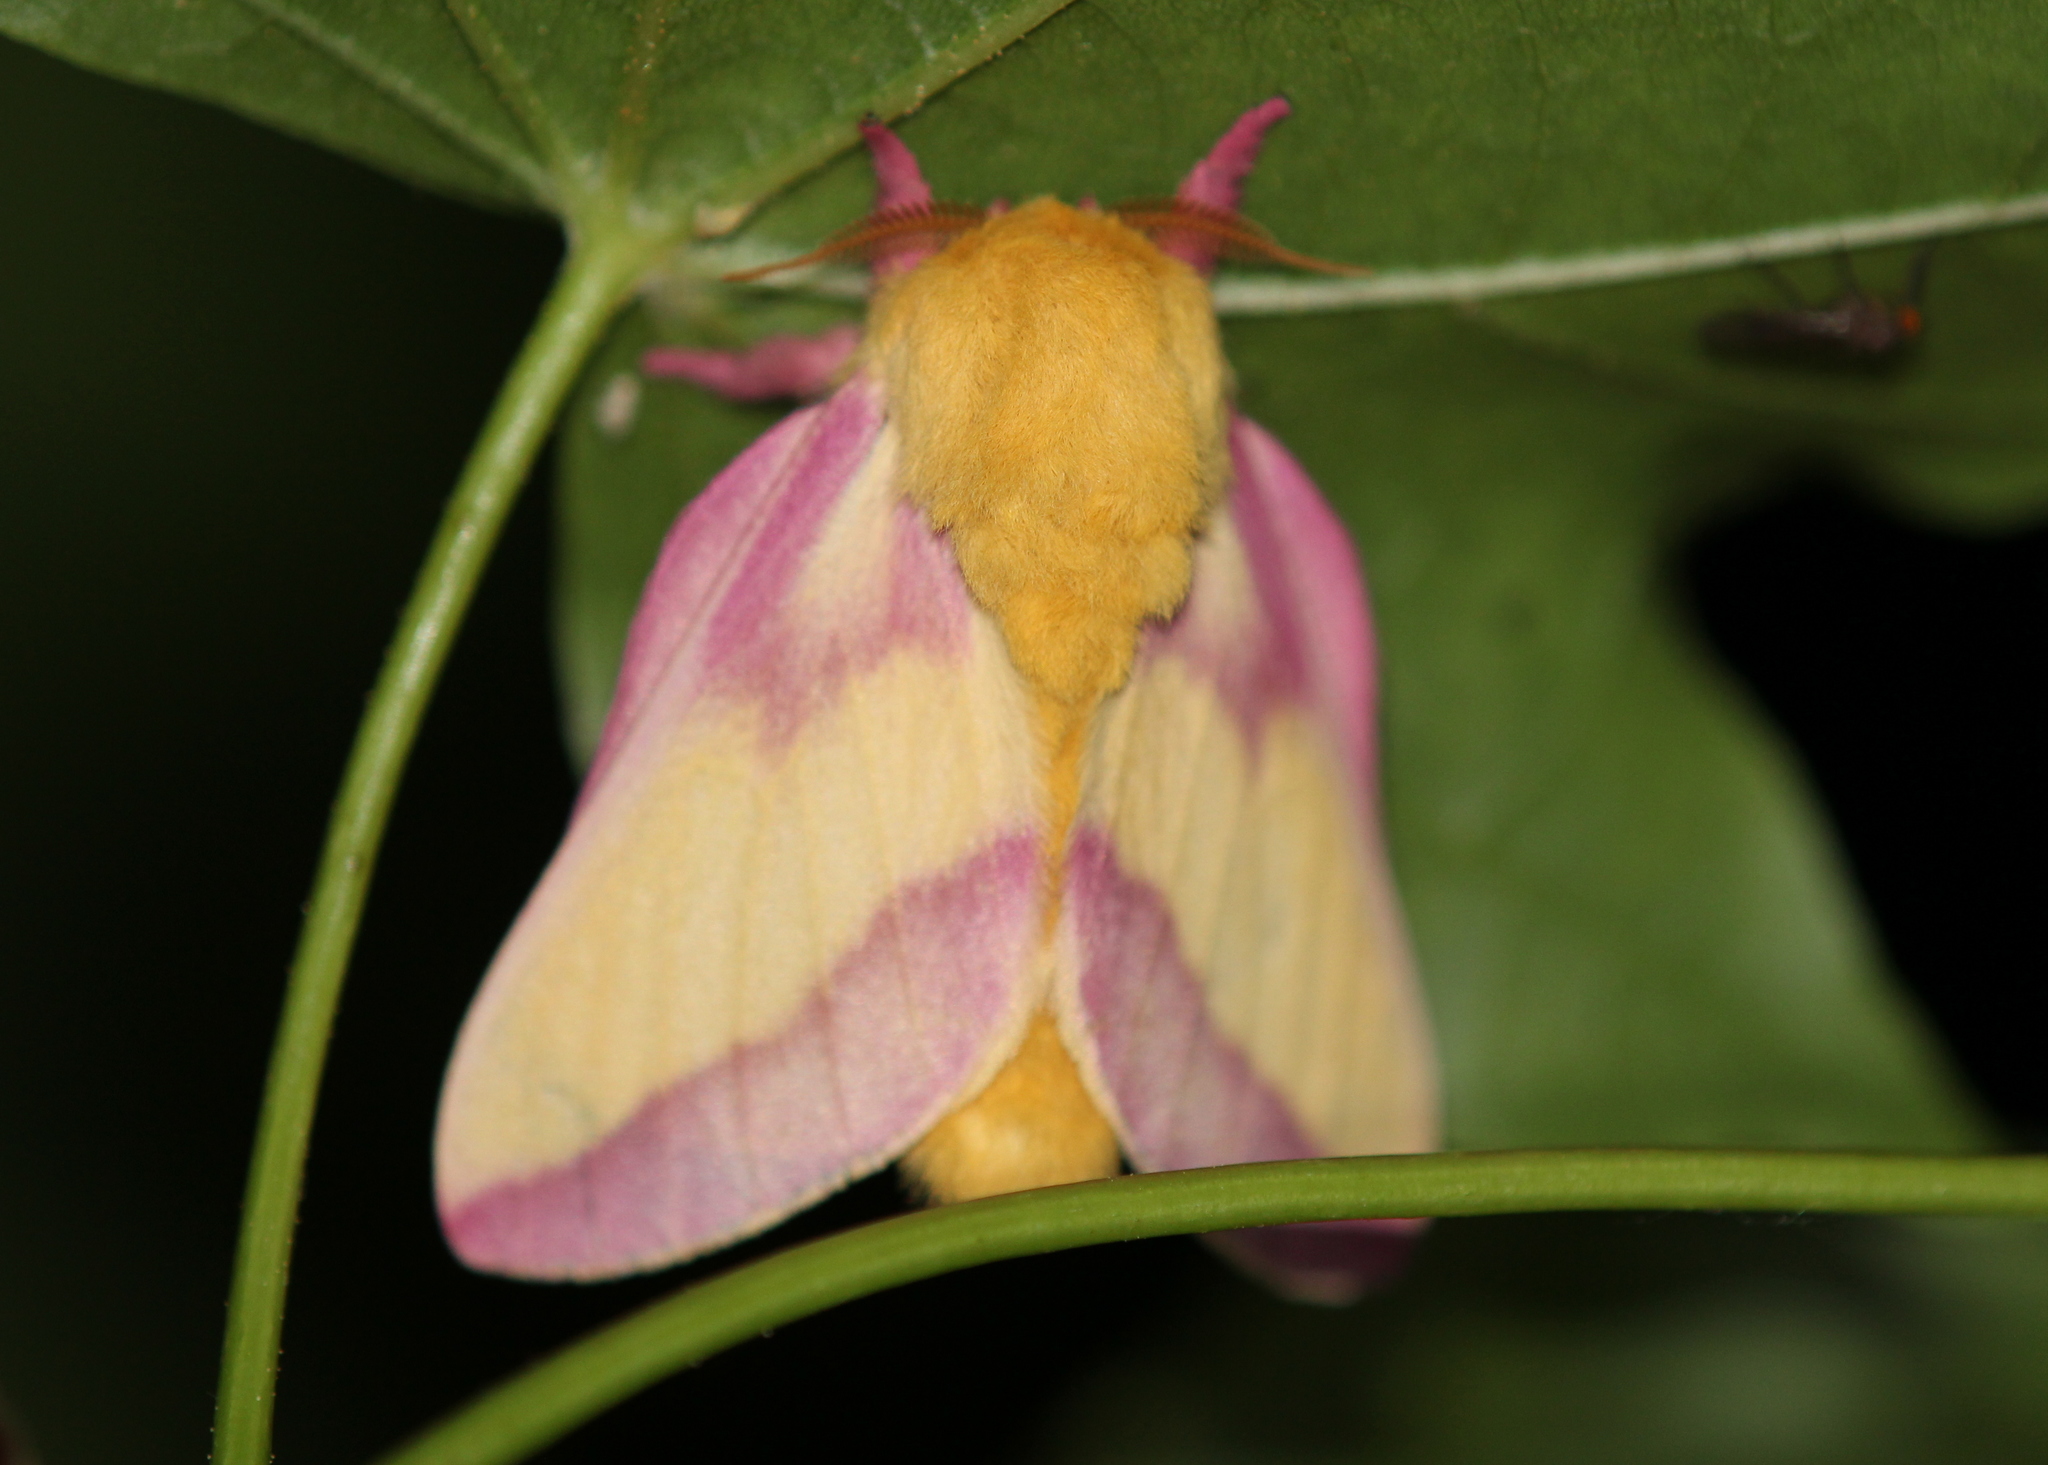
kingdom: Animalia
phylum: Arthropoda
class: Insecta
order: Lepidoptera
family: Saturniidae
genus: Dryocampa
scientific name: Dryocampa rubicunda
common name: Rosy maple moth
